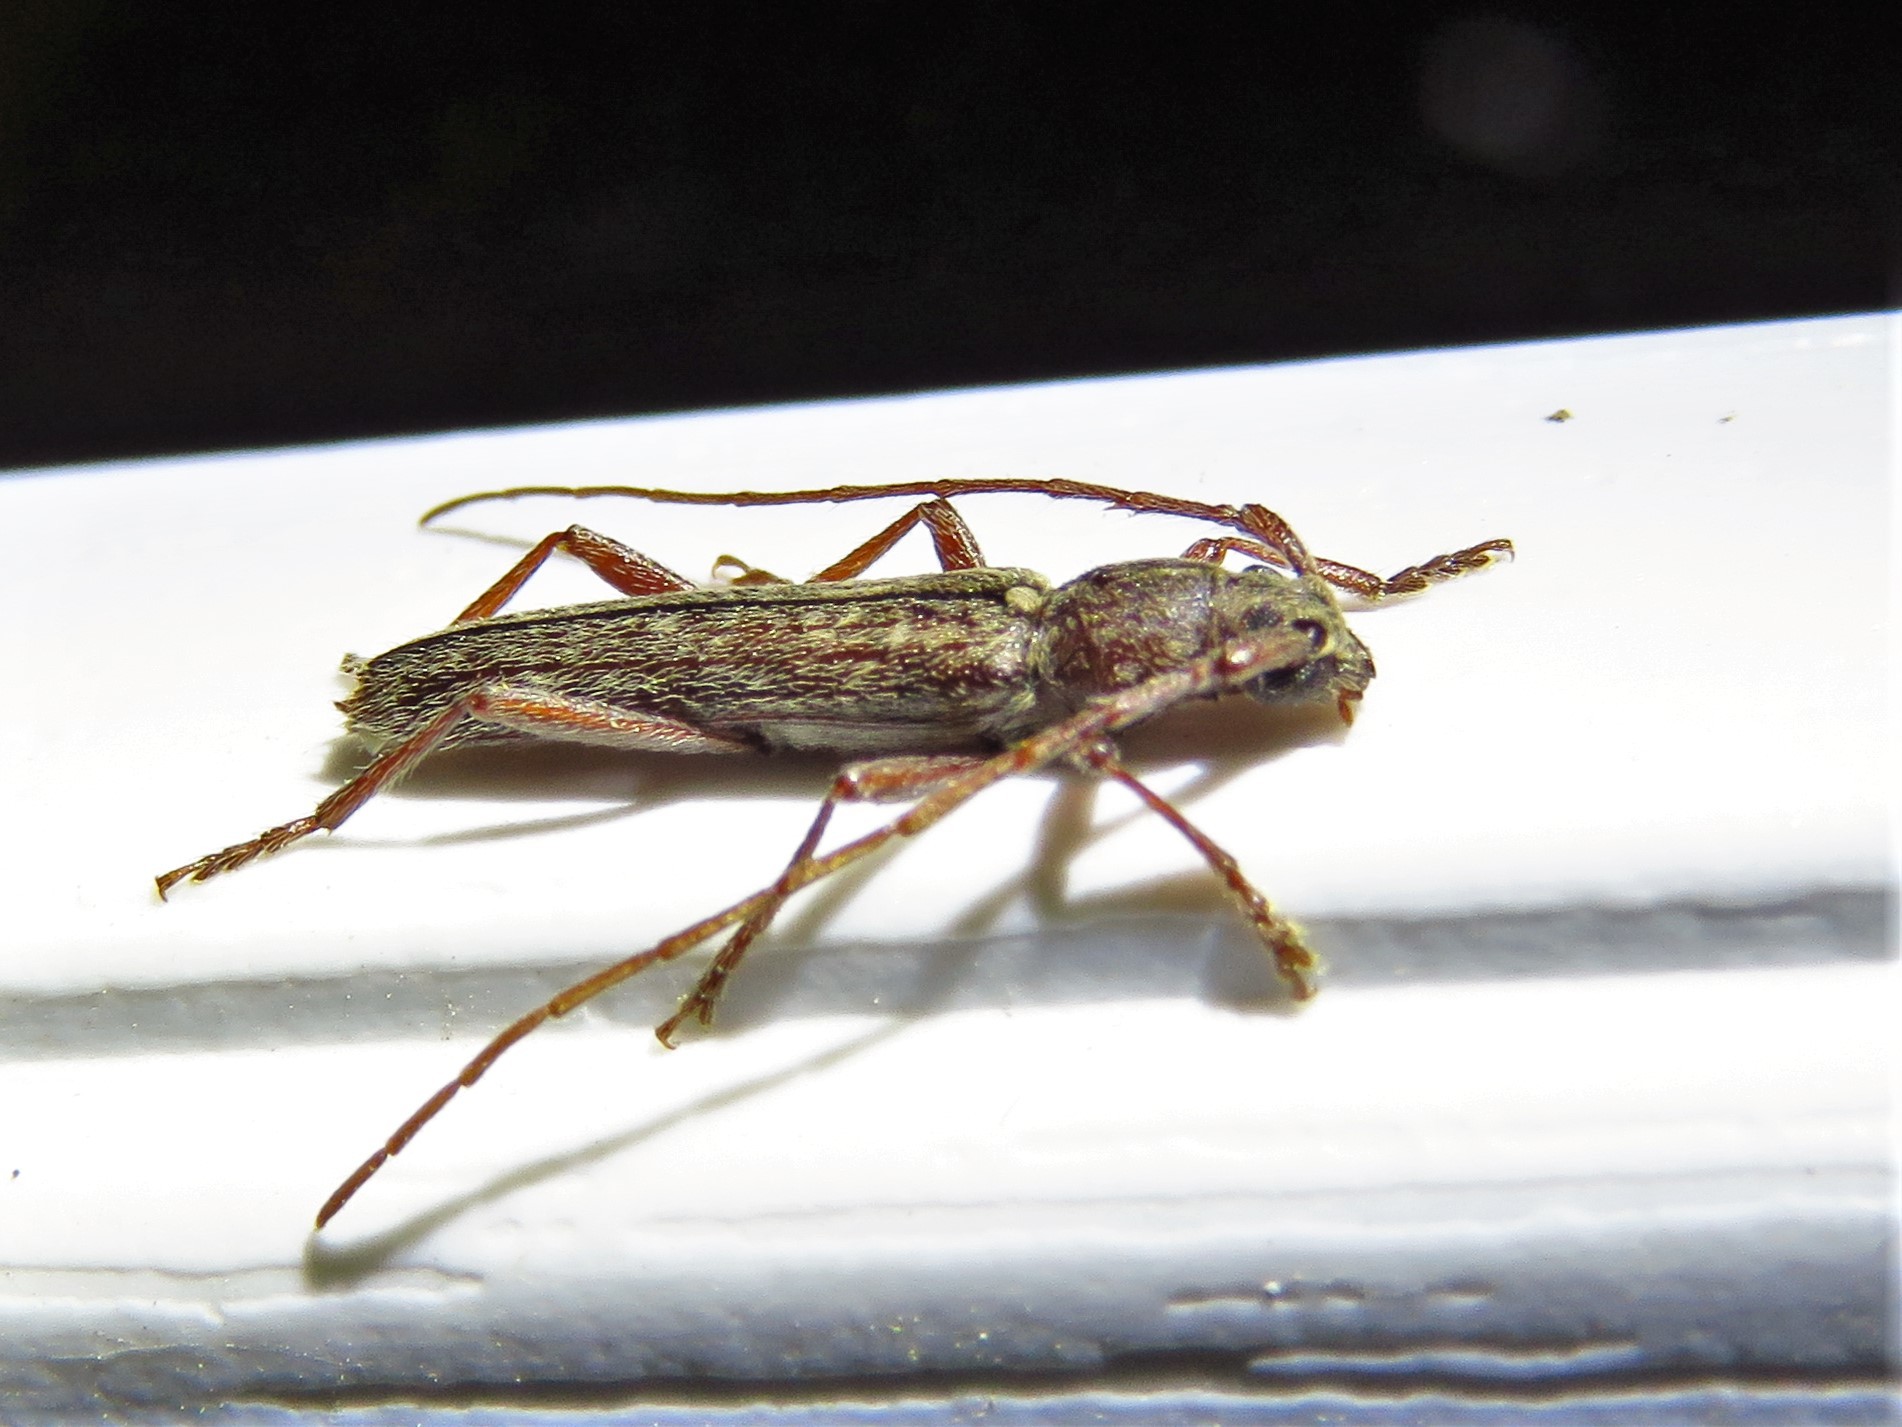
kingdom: Animalia
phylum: Arthropoda
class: Insecta
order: Coleoptera
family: Cerambycidae
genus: Anelaphus
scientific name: Anelaphus villosus
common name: Twig pruner
